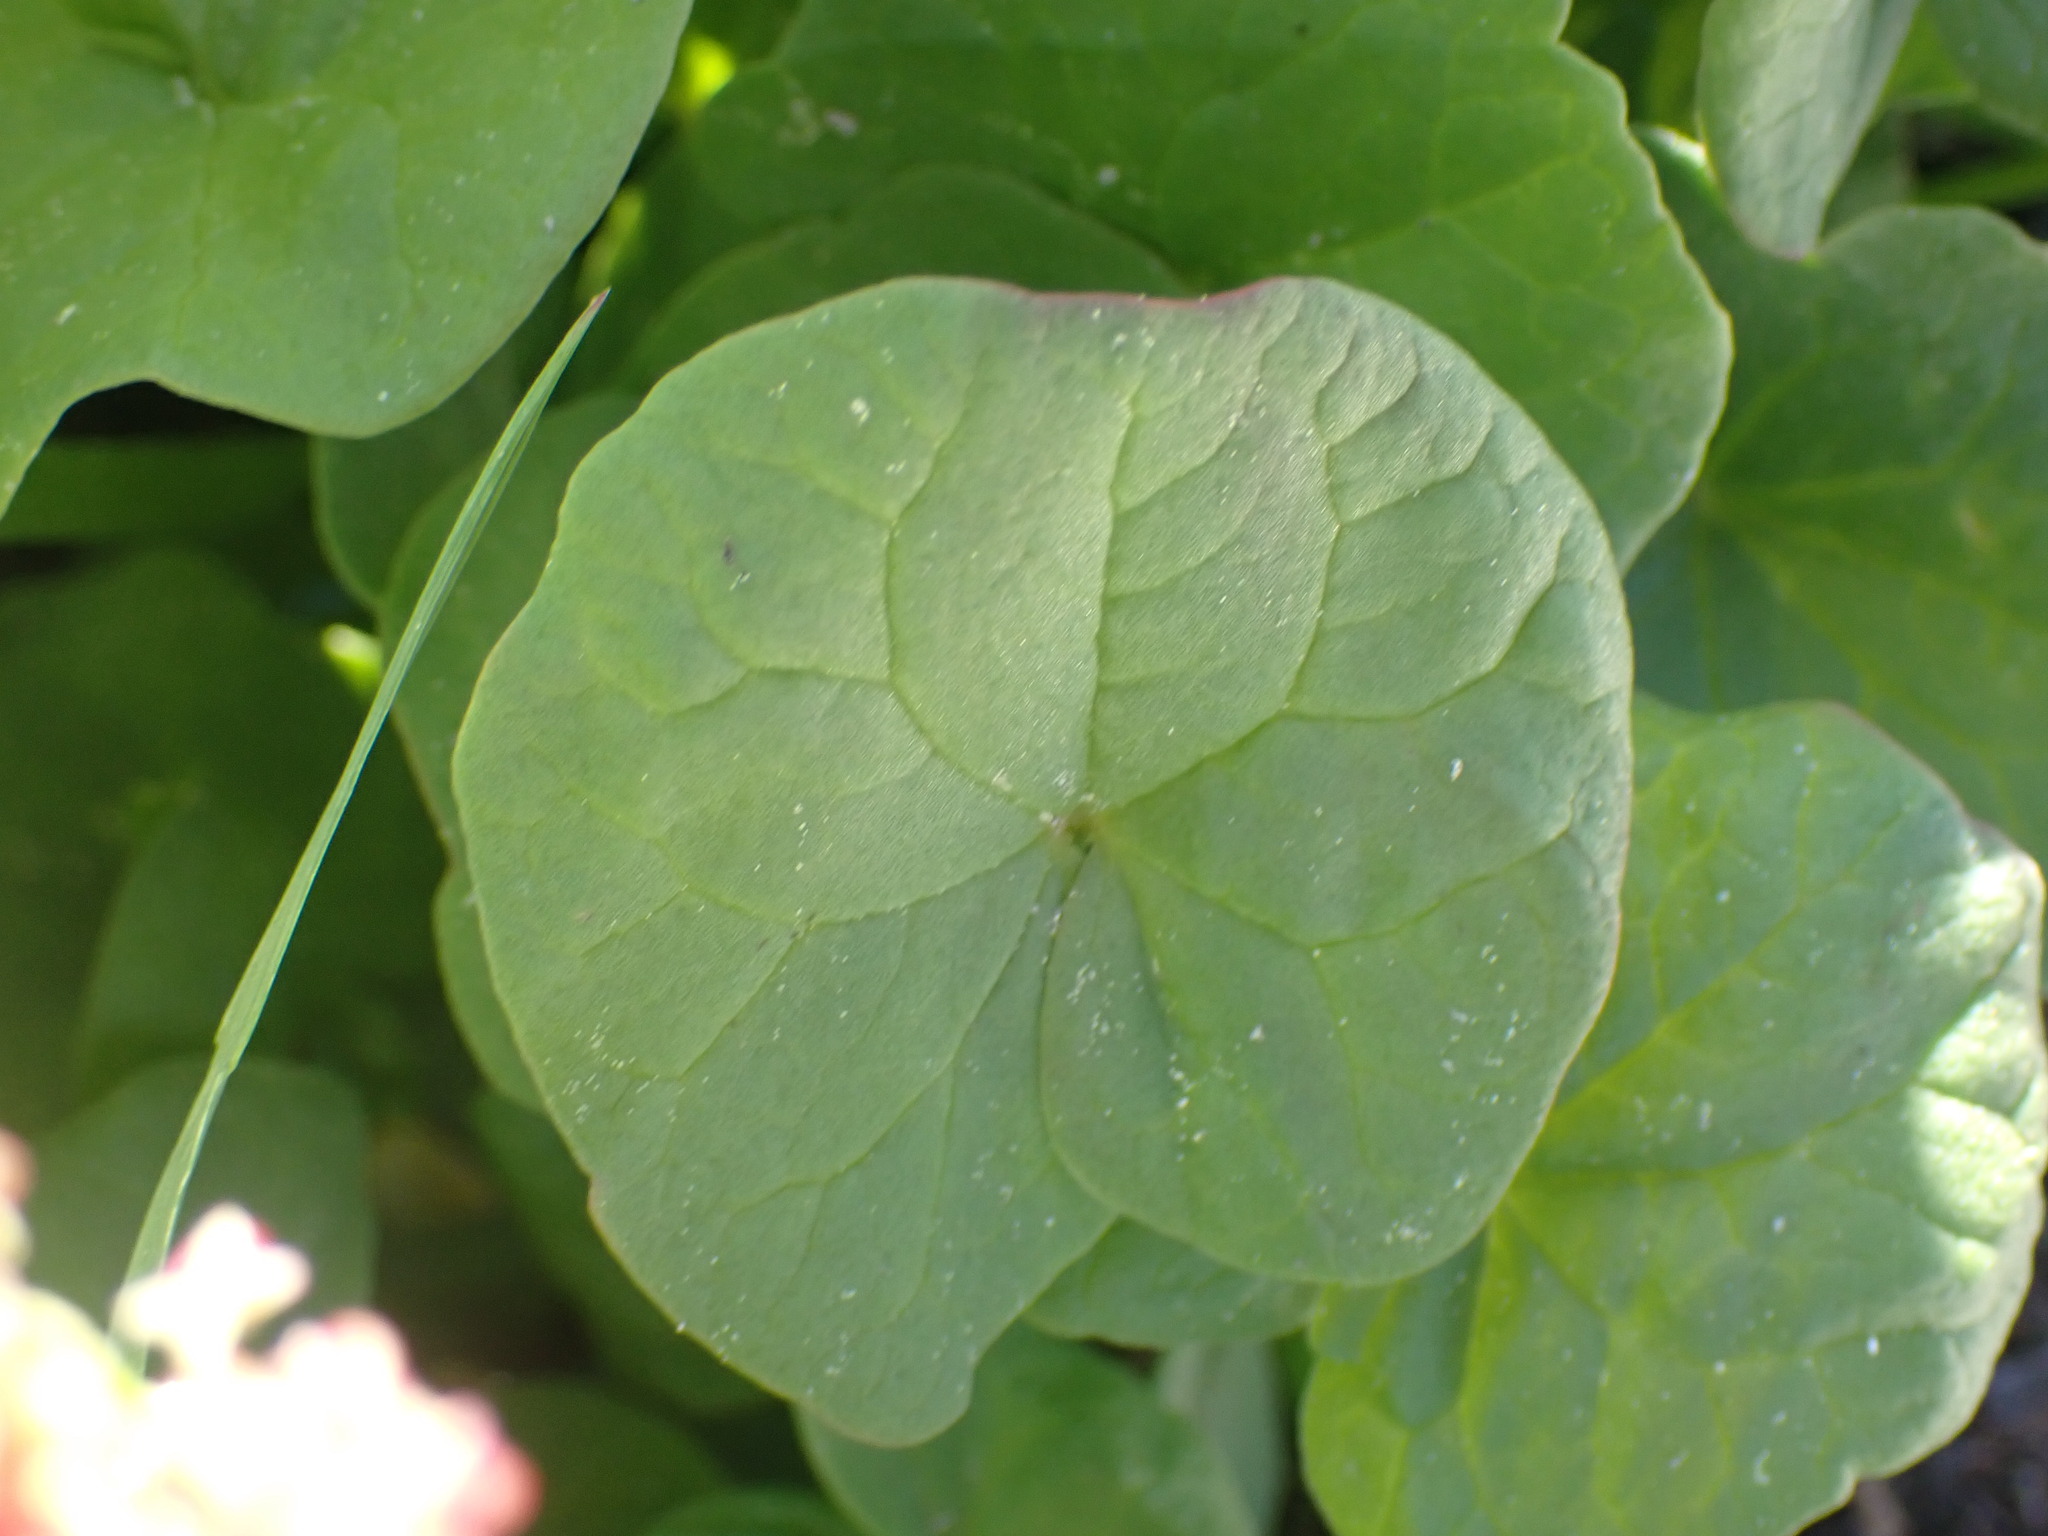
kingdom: Plantae
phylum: Tracheophyta
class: Magnoliopsida
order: Caryophyllales
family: Polygonaceae
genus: Oxyria
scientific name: Oxyria digyna
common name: Alpine mountain-sorrel
